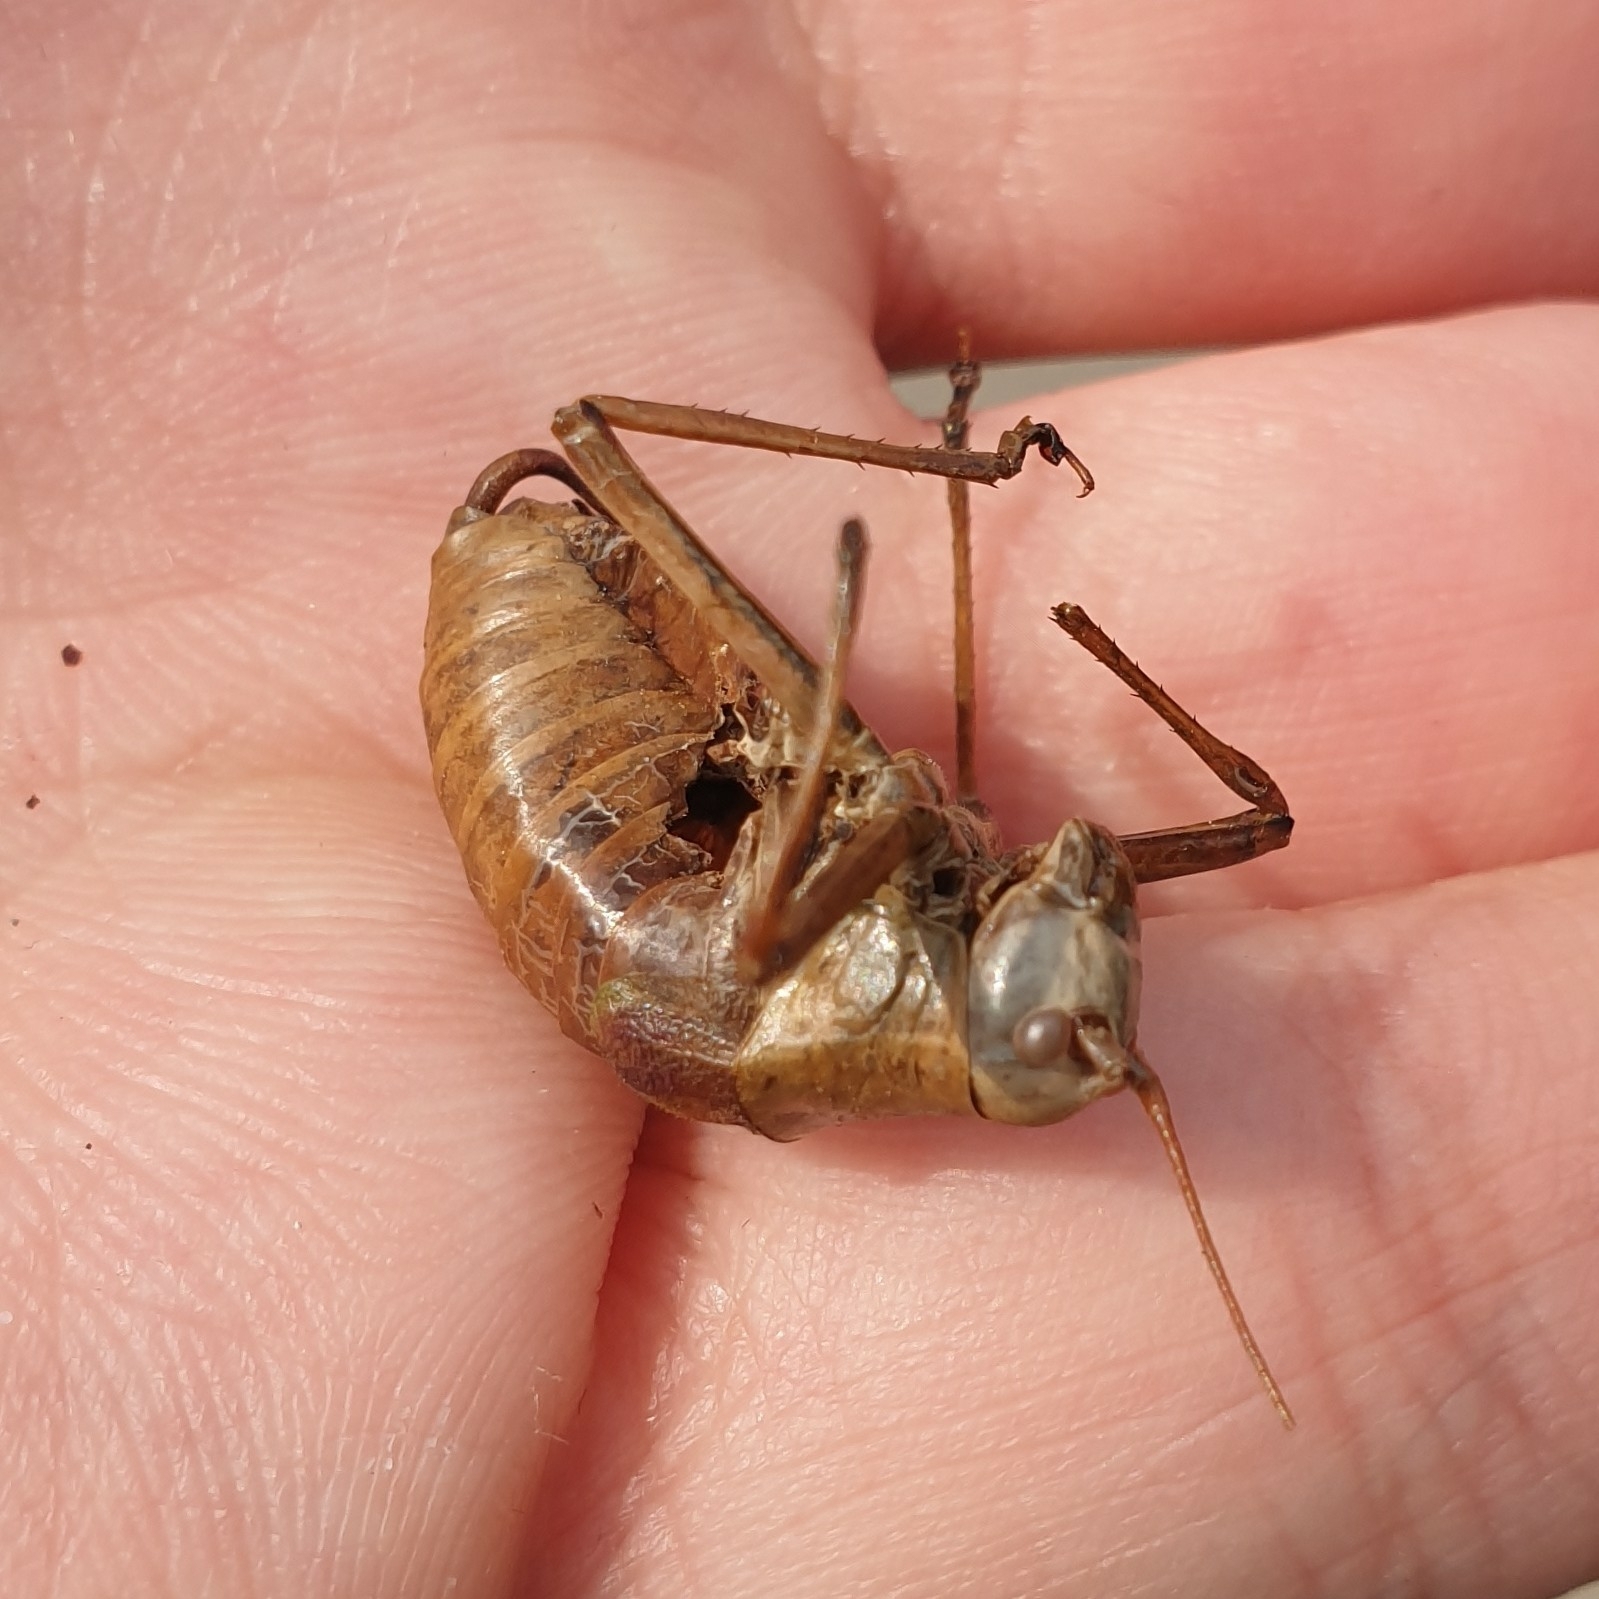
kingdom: Animalia
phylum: Arthropoda
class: Insecta
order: Orthoptera
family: Tettigoniidae
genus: Barbitistes
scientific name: Barbitistes yersini
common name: Balkan saw bush-cricket
